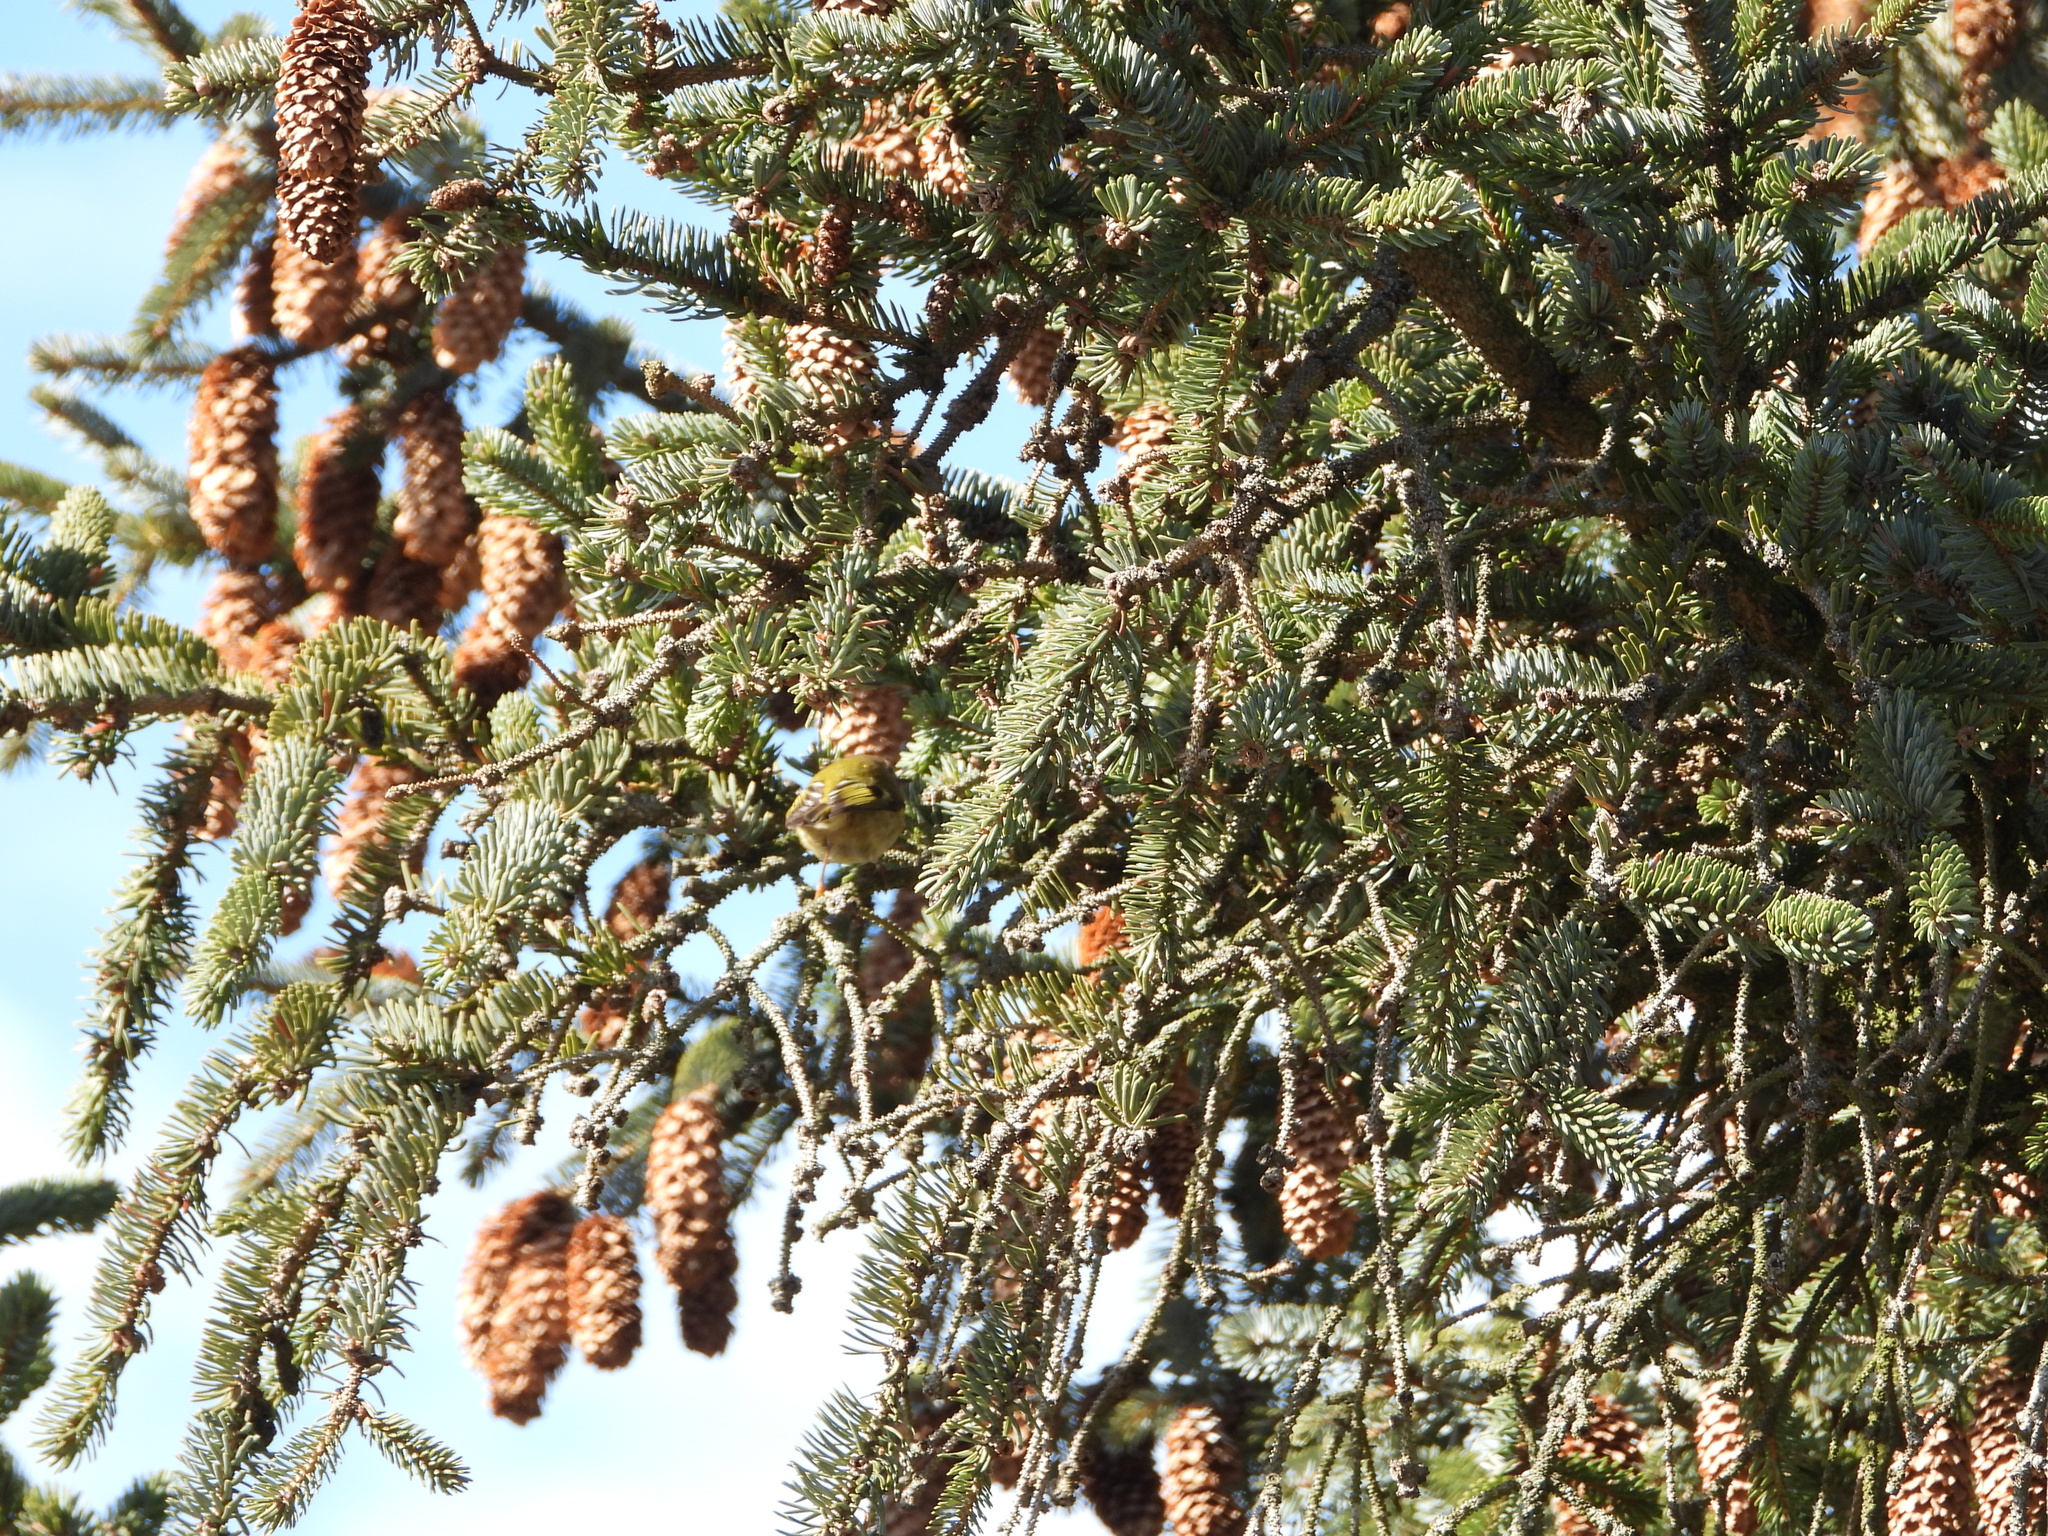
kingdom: Animalia
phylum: Chordata
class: Aves
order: Passeriformes
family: Regulidae
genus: Regulus
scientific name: Regulus regulus
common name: Goldcrest
